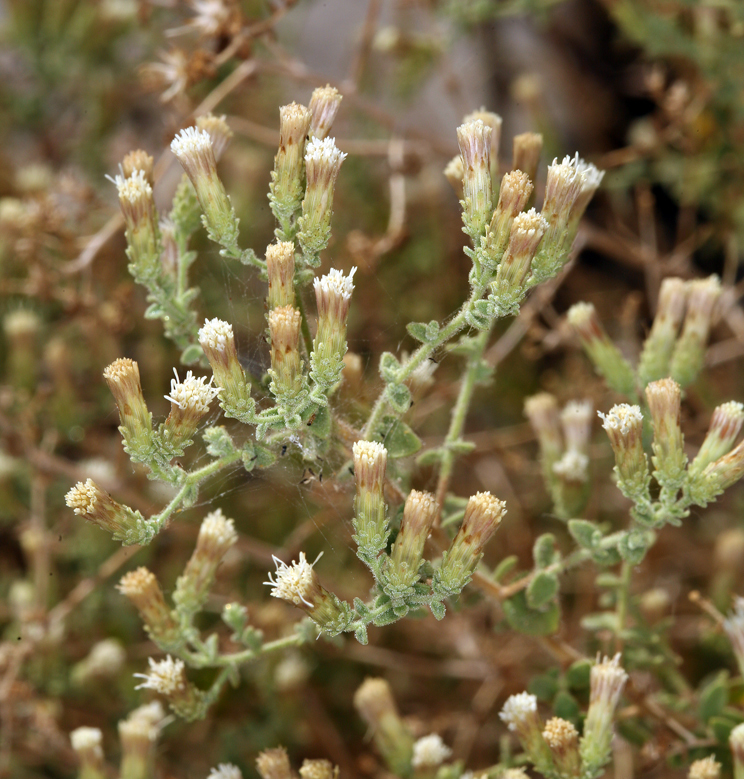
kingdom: Plantae
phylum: Tracheophyta
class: Magnoliopsida
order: Asterales
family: Asteraceae
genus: Brickellia
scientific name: Brickellia microphylla
